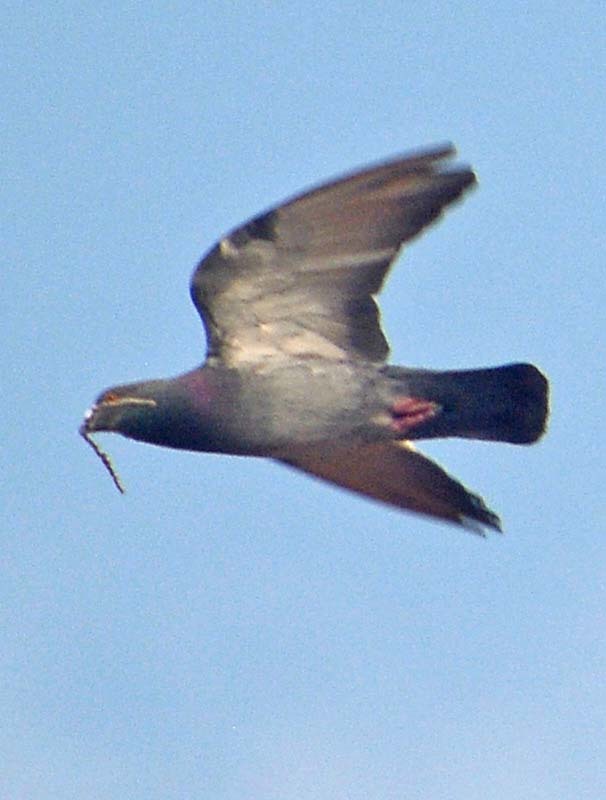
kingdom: Animalia
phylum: Chordata
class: Aves
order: Columbiformes
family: Columbidae
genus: Columba
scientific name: Columba livia
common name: Rock pigeon
